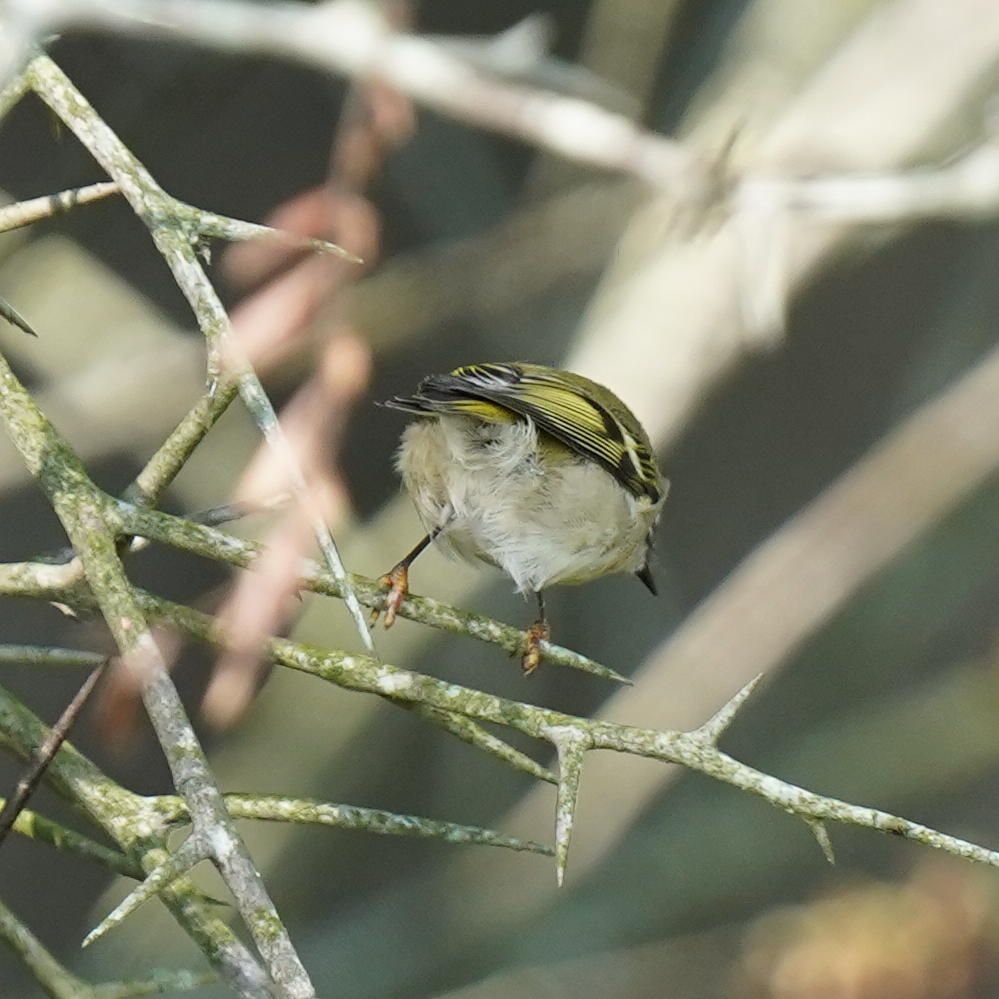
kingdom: Animalia
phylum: Chordata
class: Aves
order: Passeriformes
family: Regulidae
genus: Regulus
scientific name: Regulus satrapa
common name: Golden-crowned kinglet
